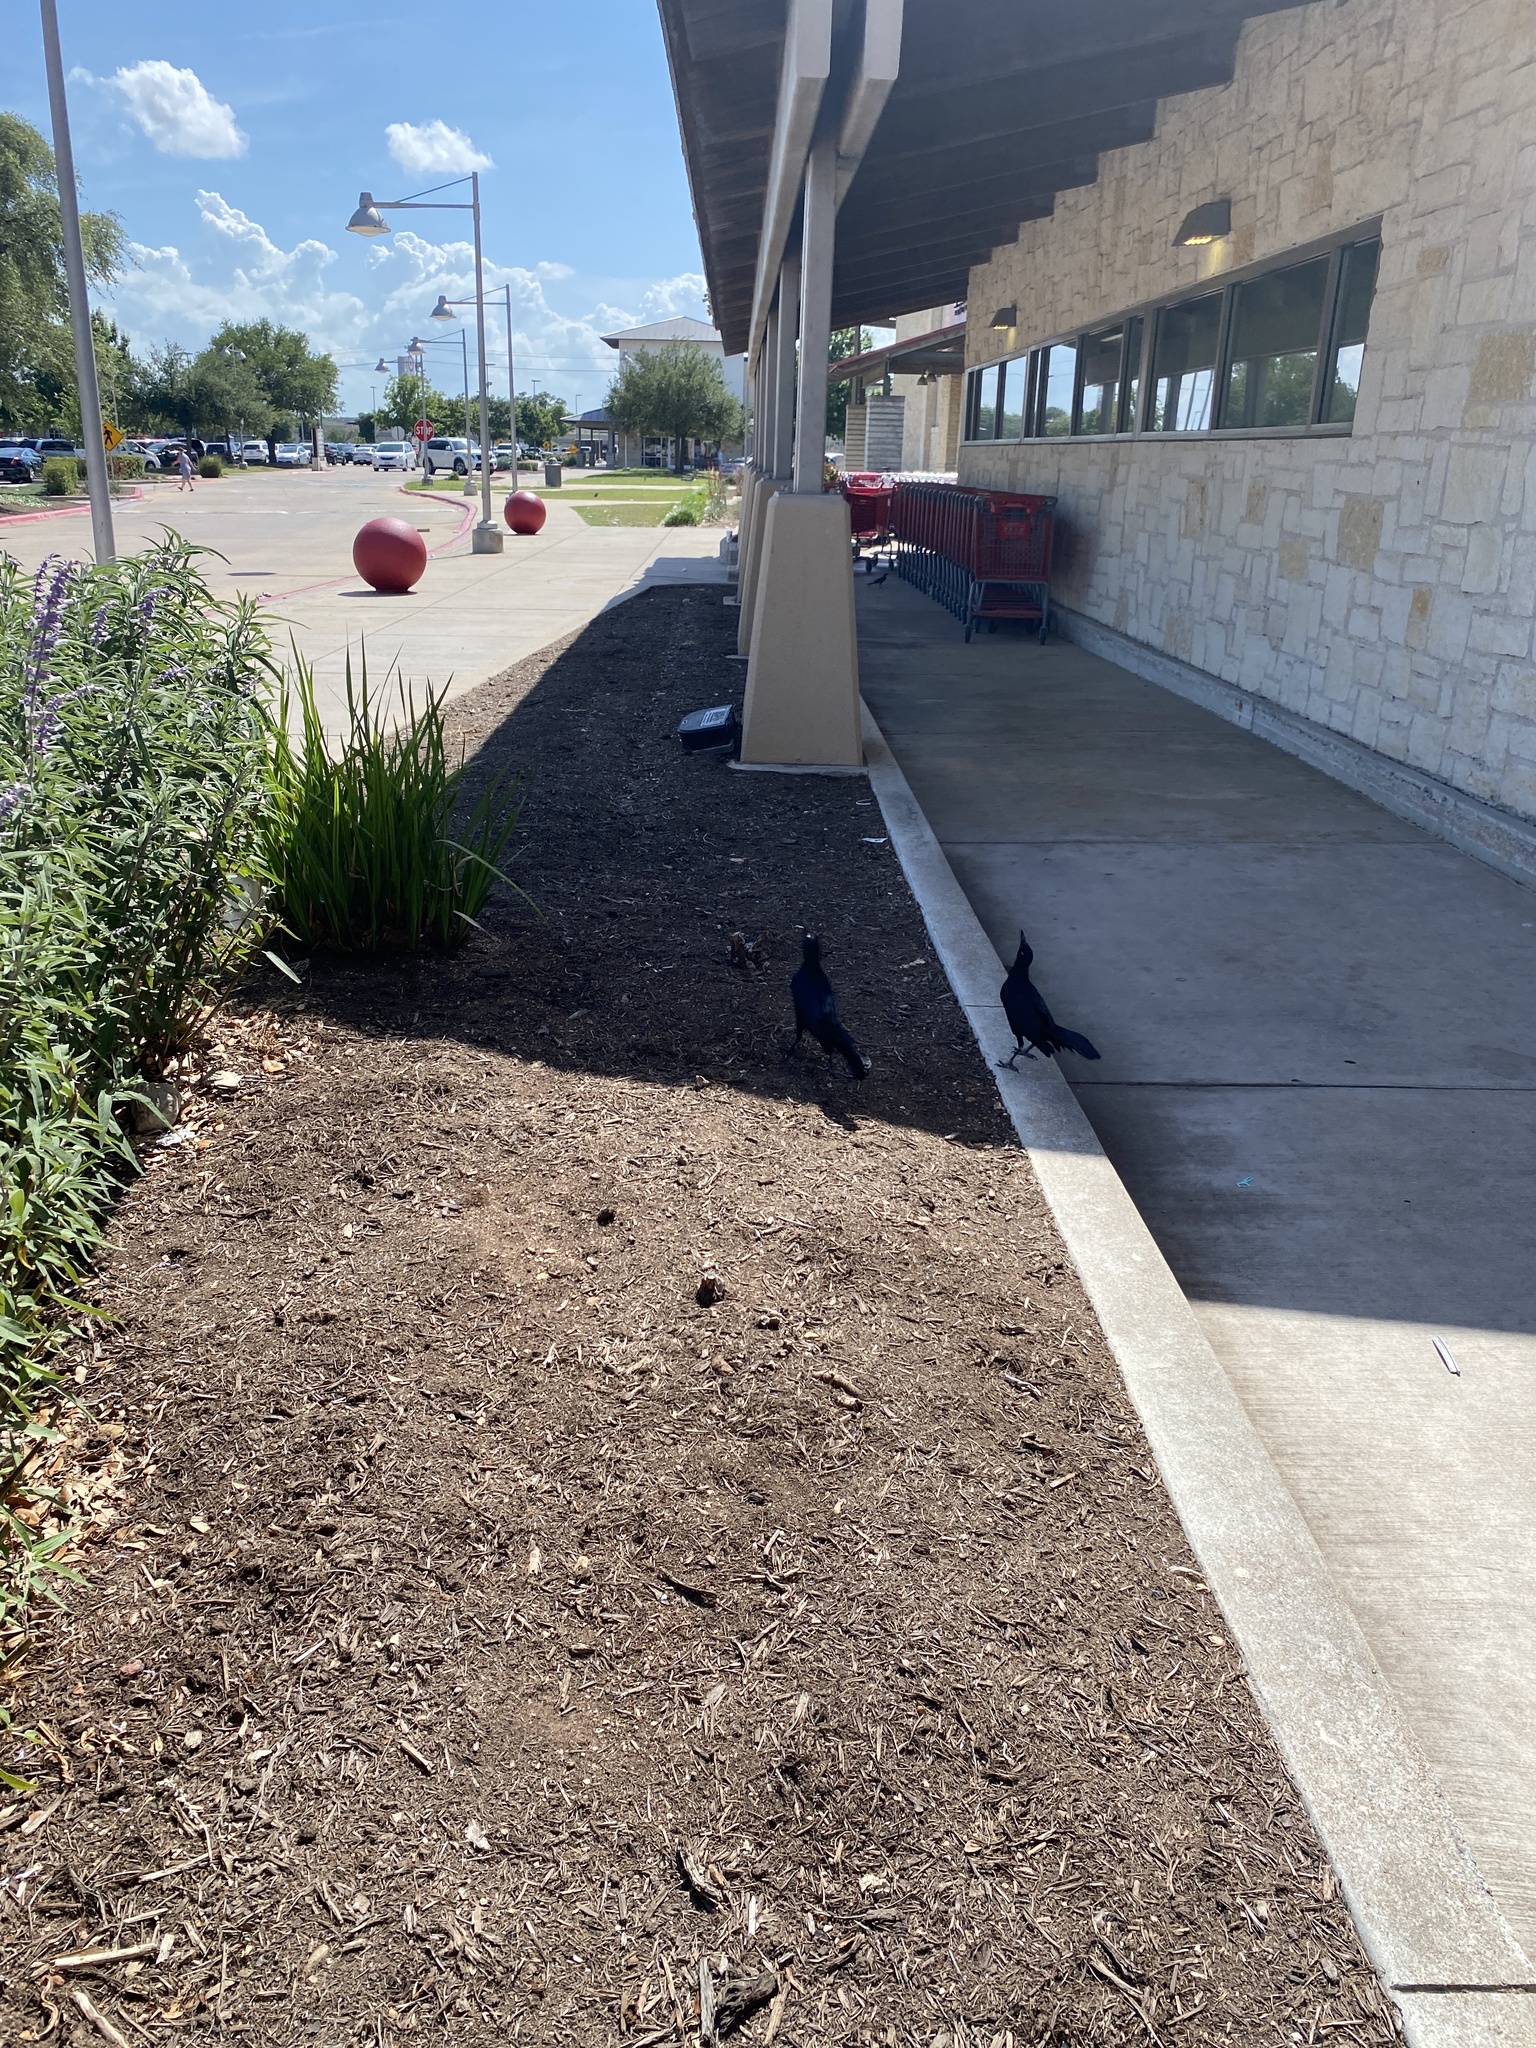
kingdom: Animalia
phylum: Chordata
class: Aves
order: Passeriformes
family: Icteridae
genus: Quiscalus
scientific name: Quiscalus mexicanus
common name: Great-tailed grackle
